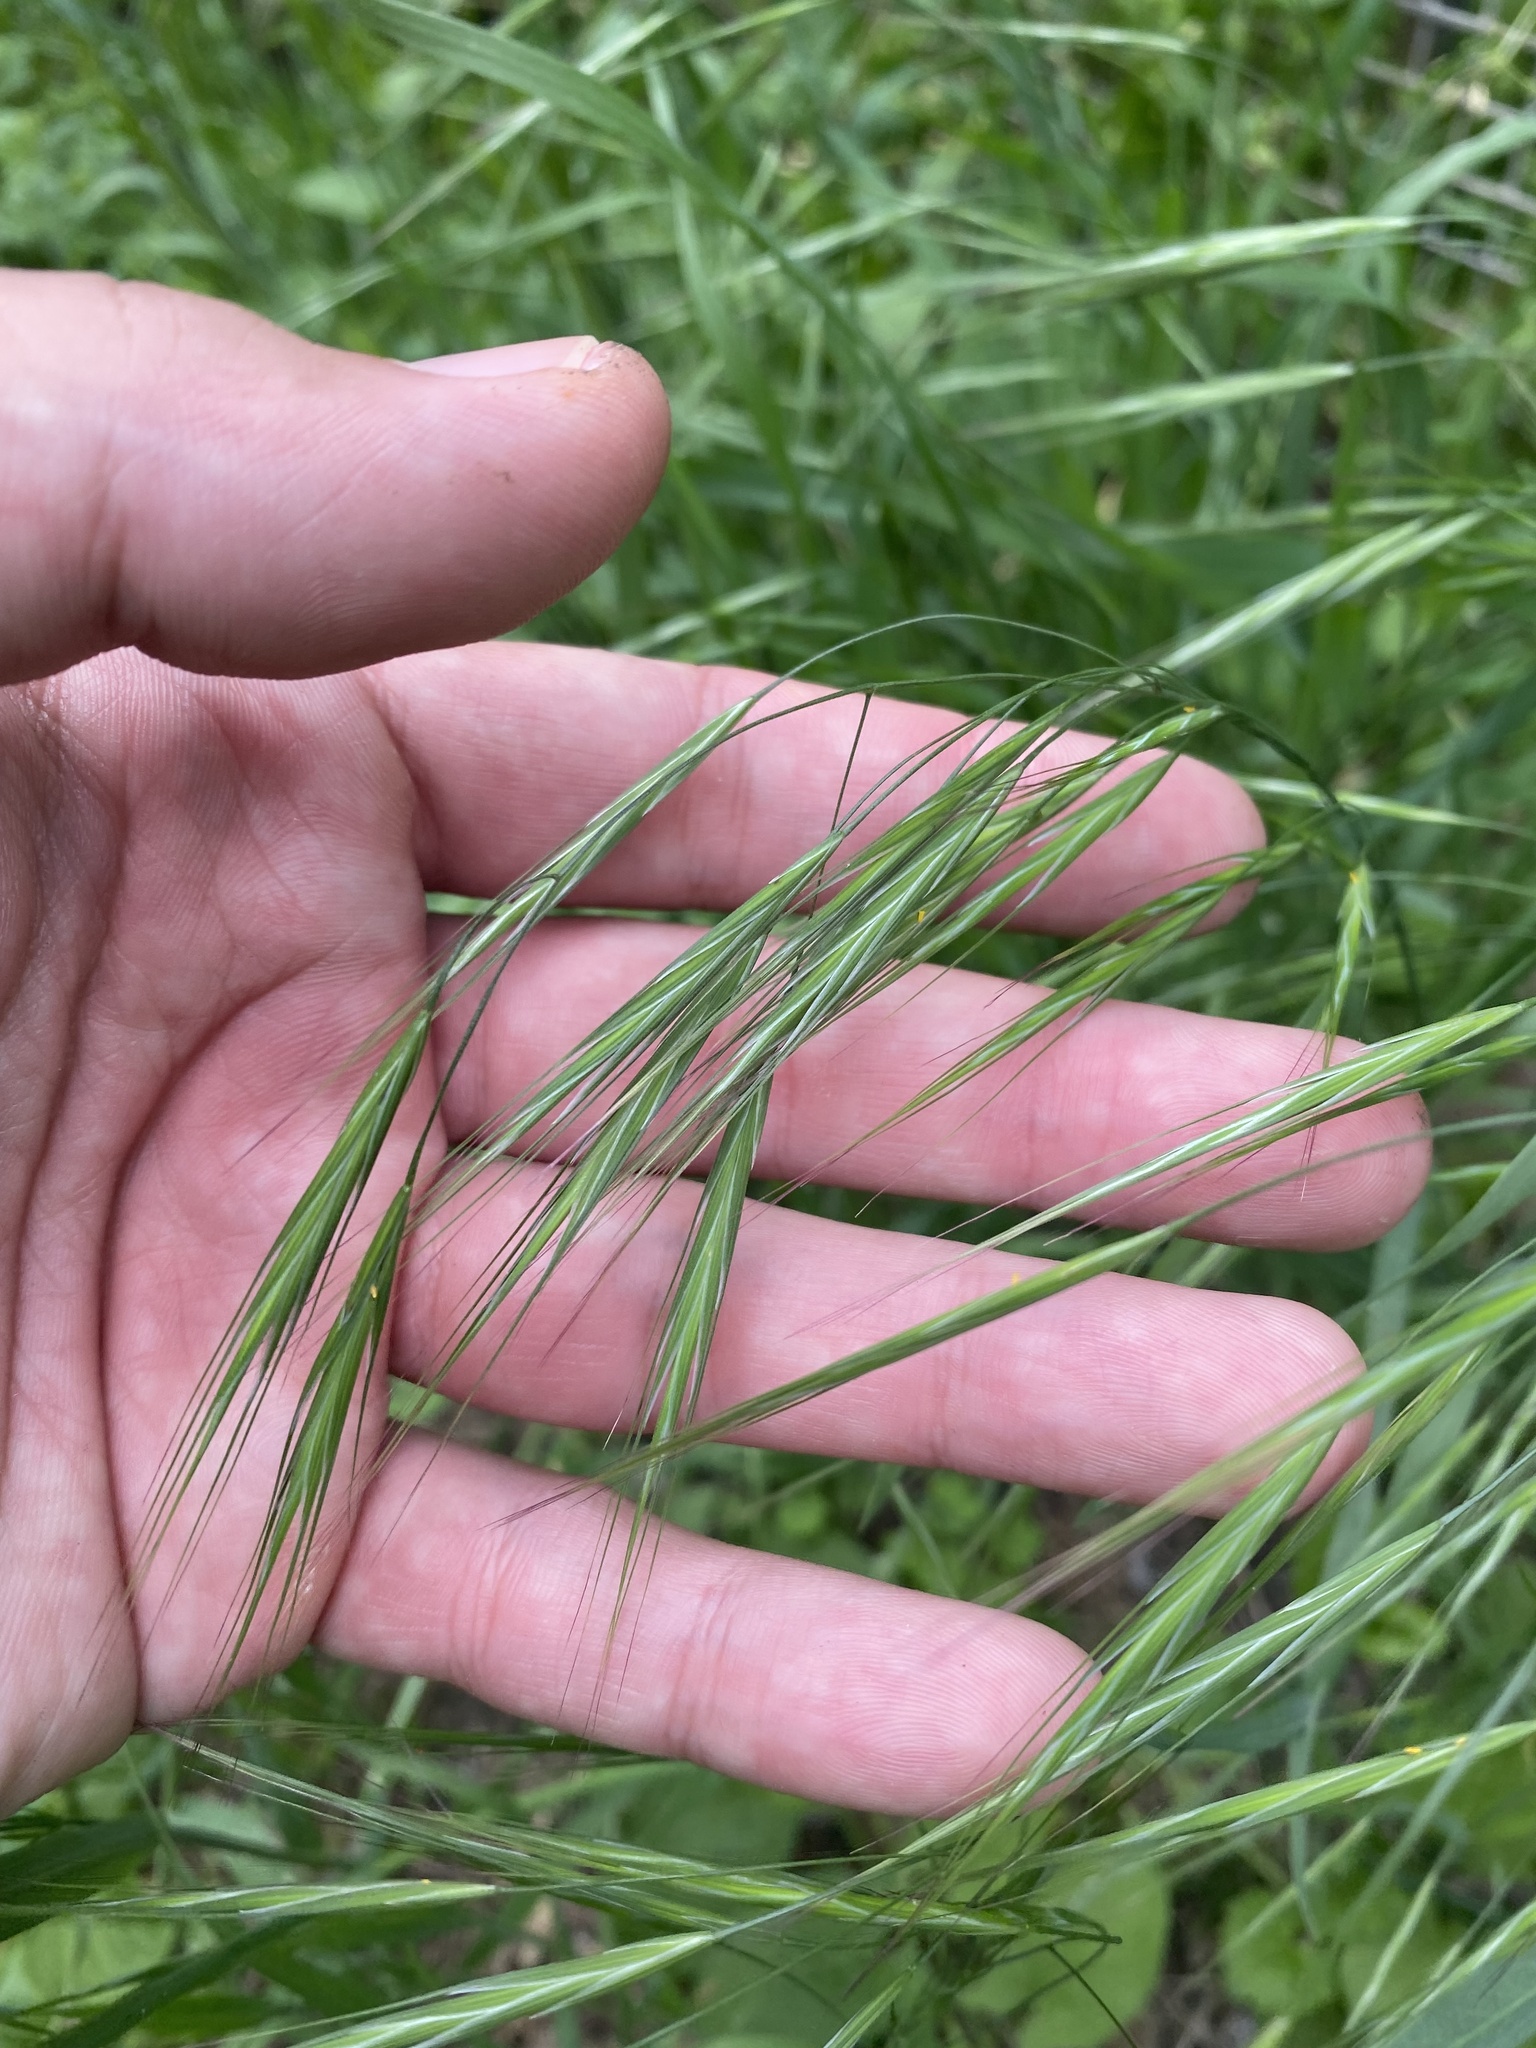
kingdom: Plantae
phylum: Tracheophyta
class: Liliopsida
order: Poales
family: Poaceae
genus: Bromus
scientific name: Bromus sterilis
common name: Poverty brome
